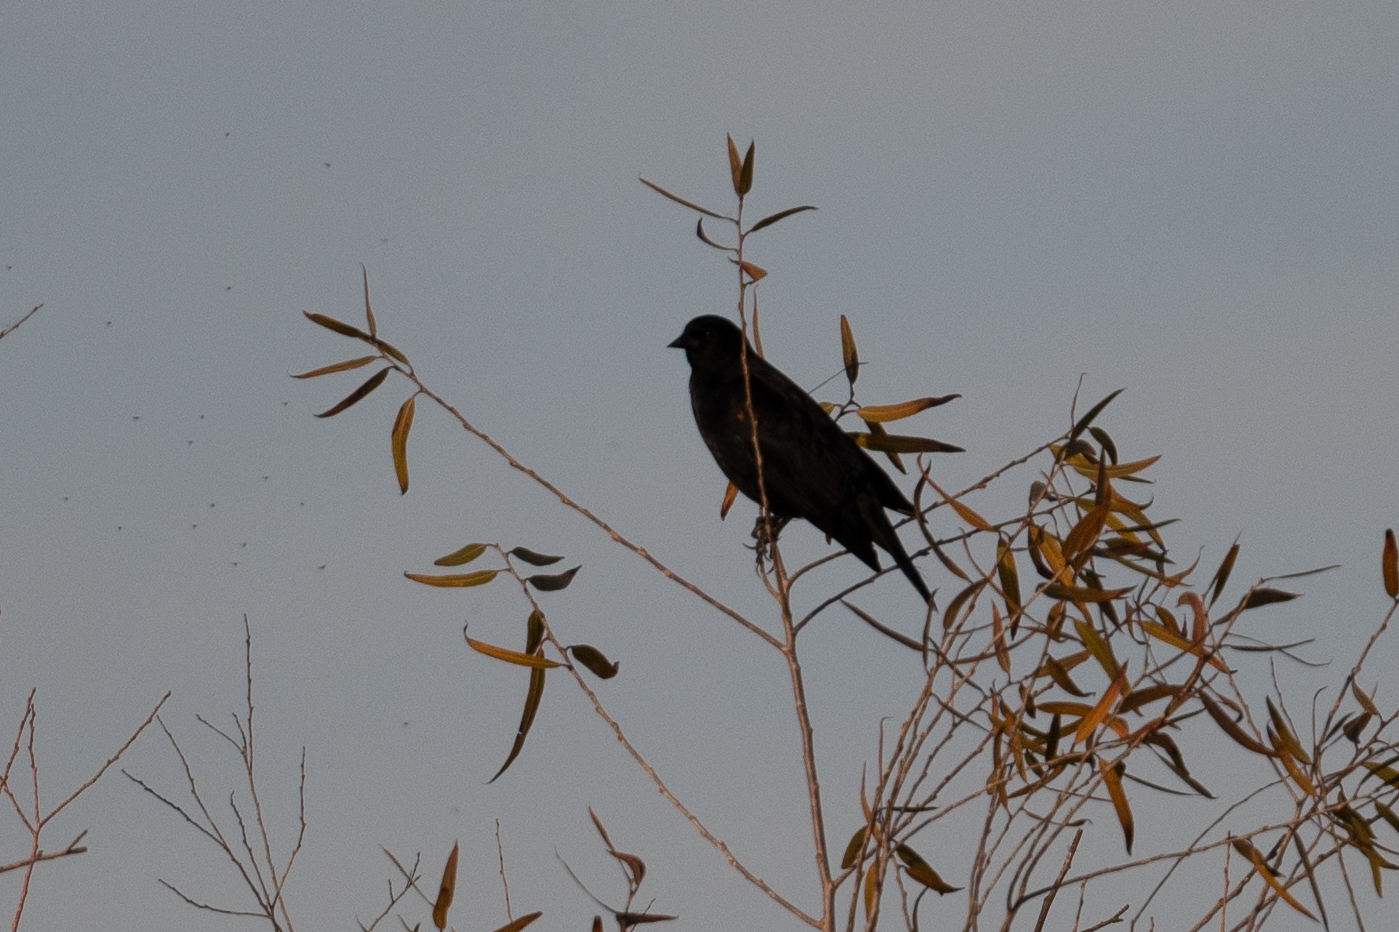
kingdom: Animalia
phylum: Chordata
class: Aves
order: Passeriformes
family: Icteridae
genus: Agelaius
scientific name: Agelaius phoeniceus
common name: Red-winged blackbird
